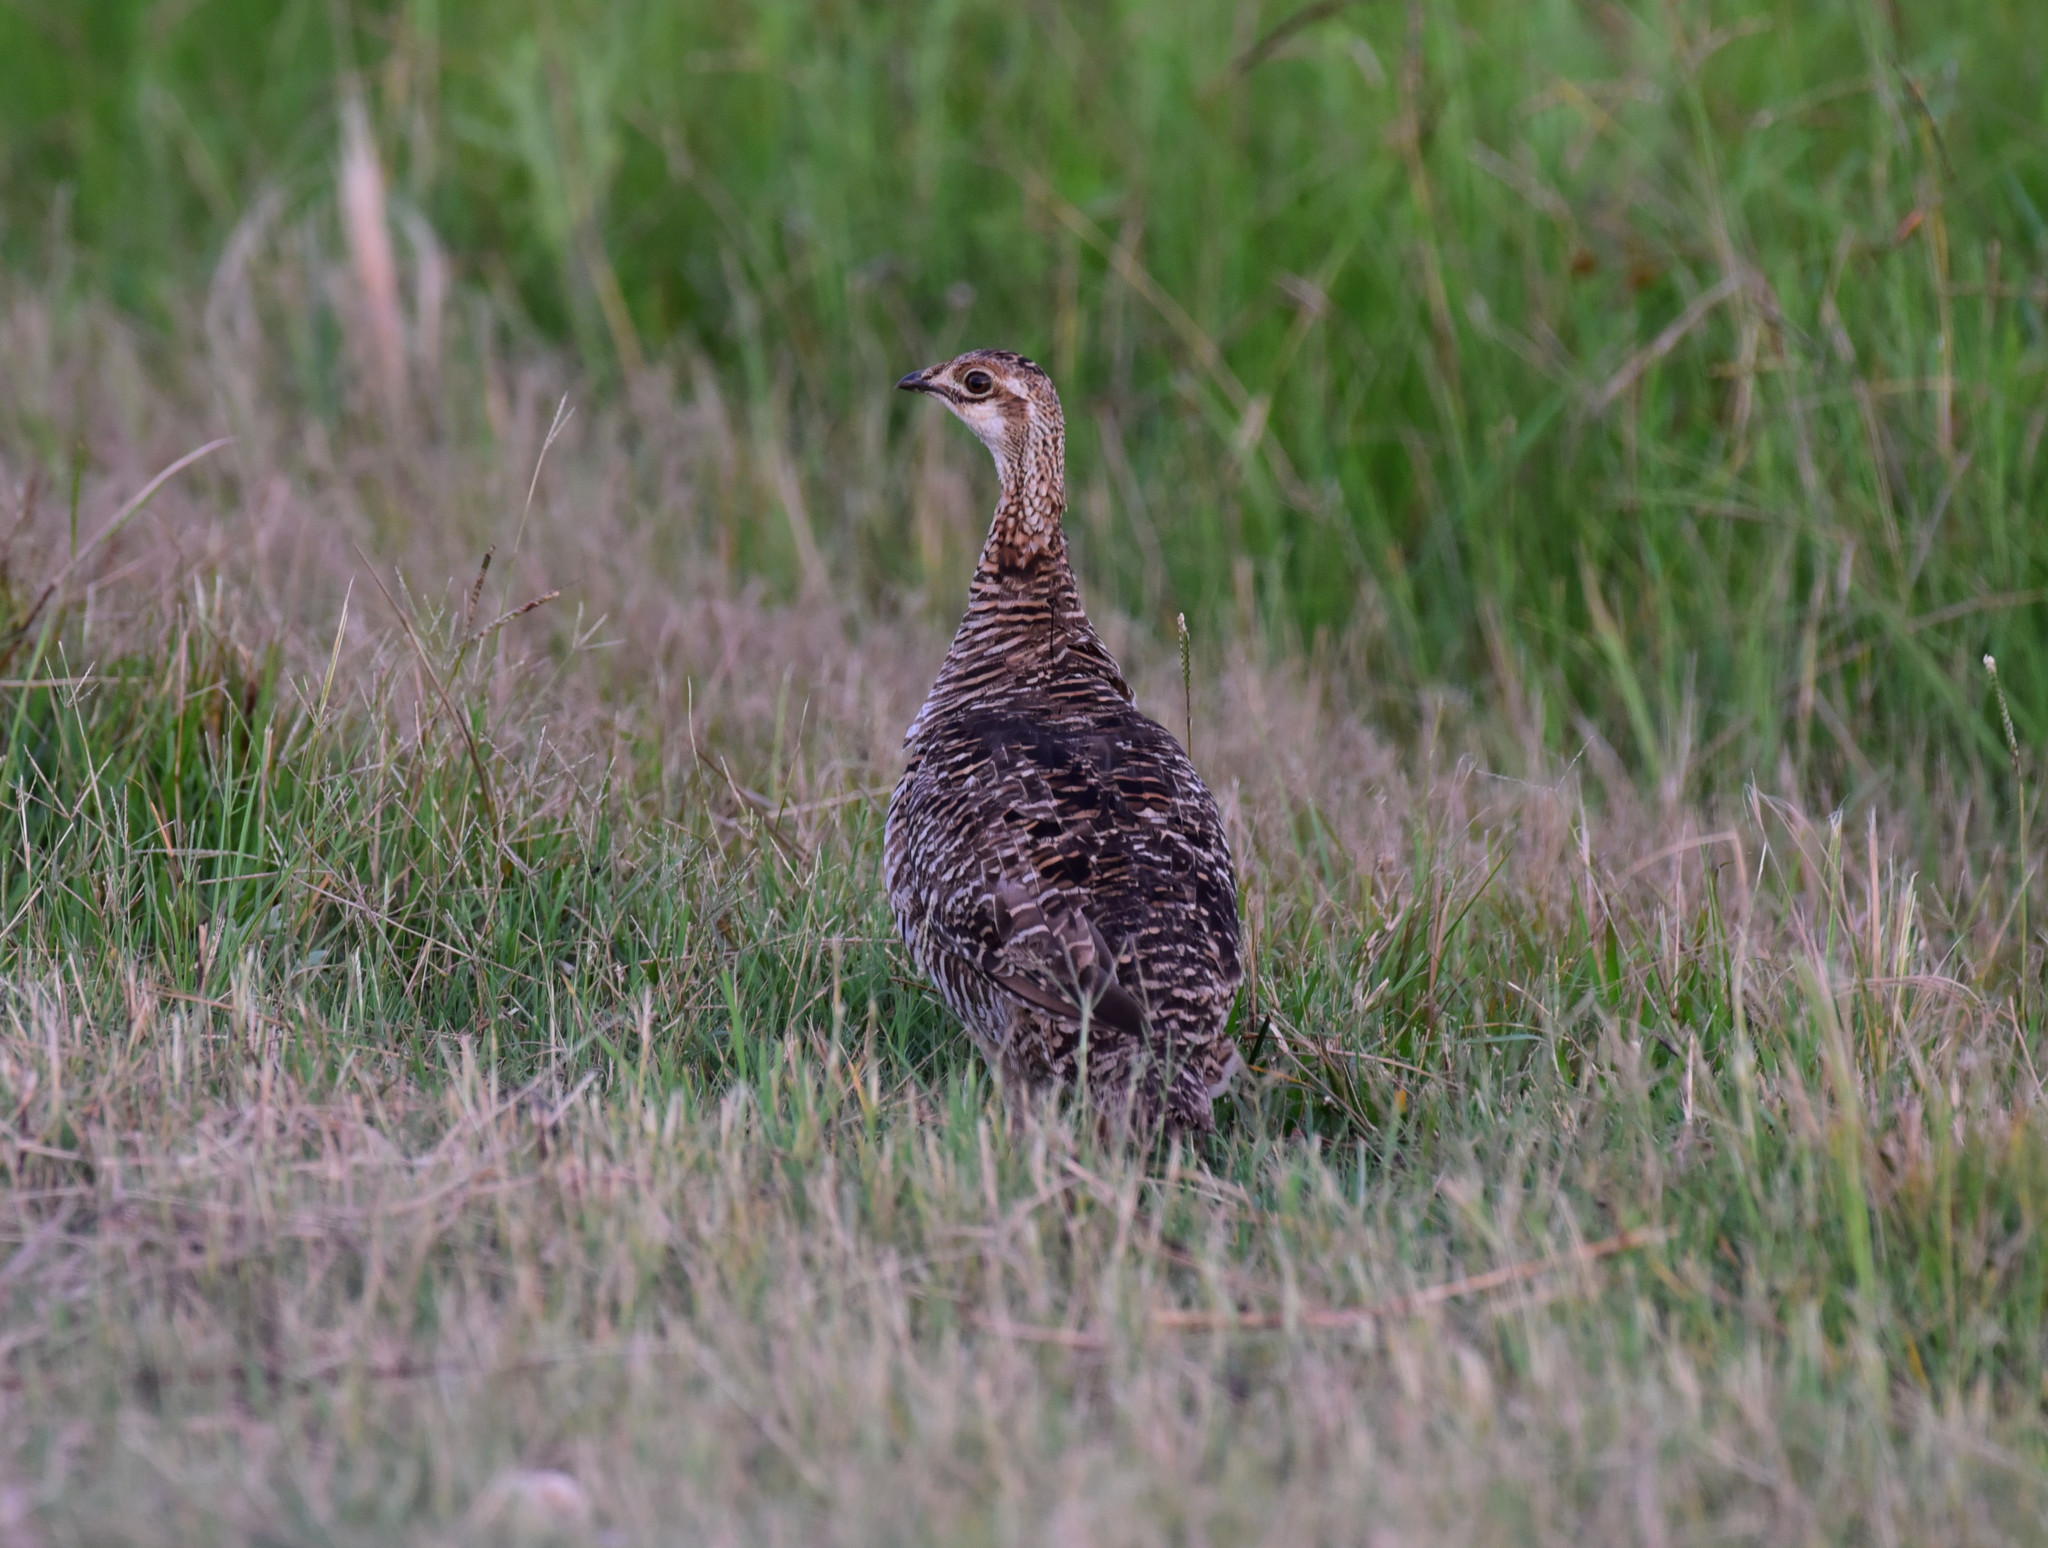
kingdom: Animalia
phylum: Chordata
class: Aves
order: Galliformes
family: Phasianidae
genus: Tympanuchus
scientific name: Tympanuchus cupido
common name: Greater prairie chicken
